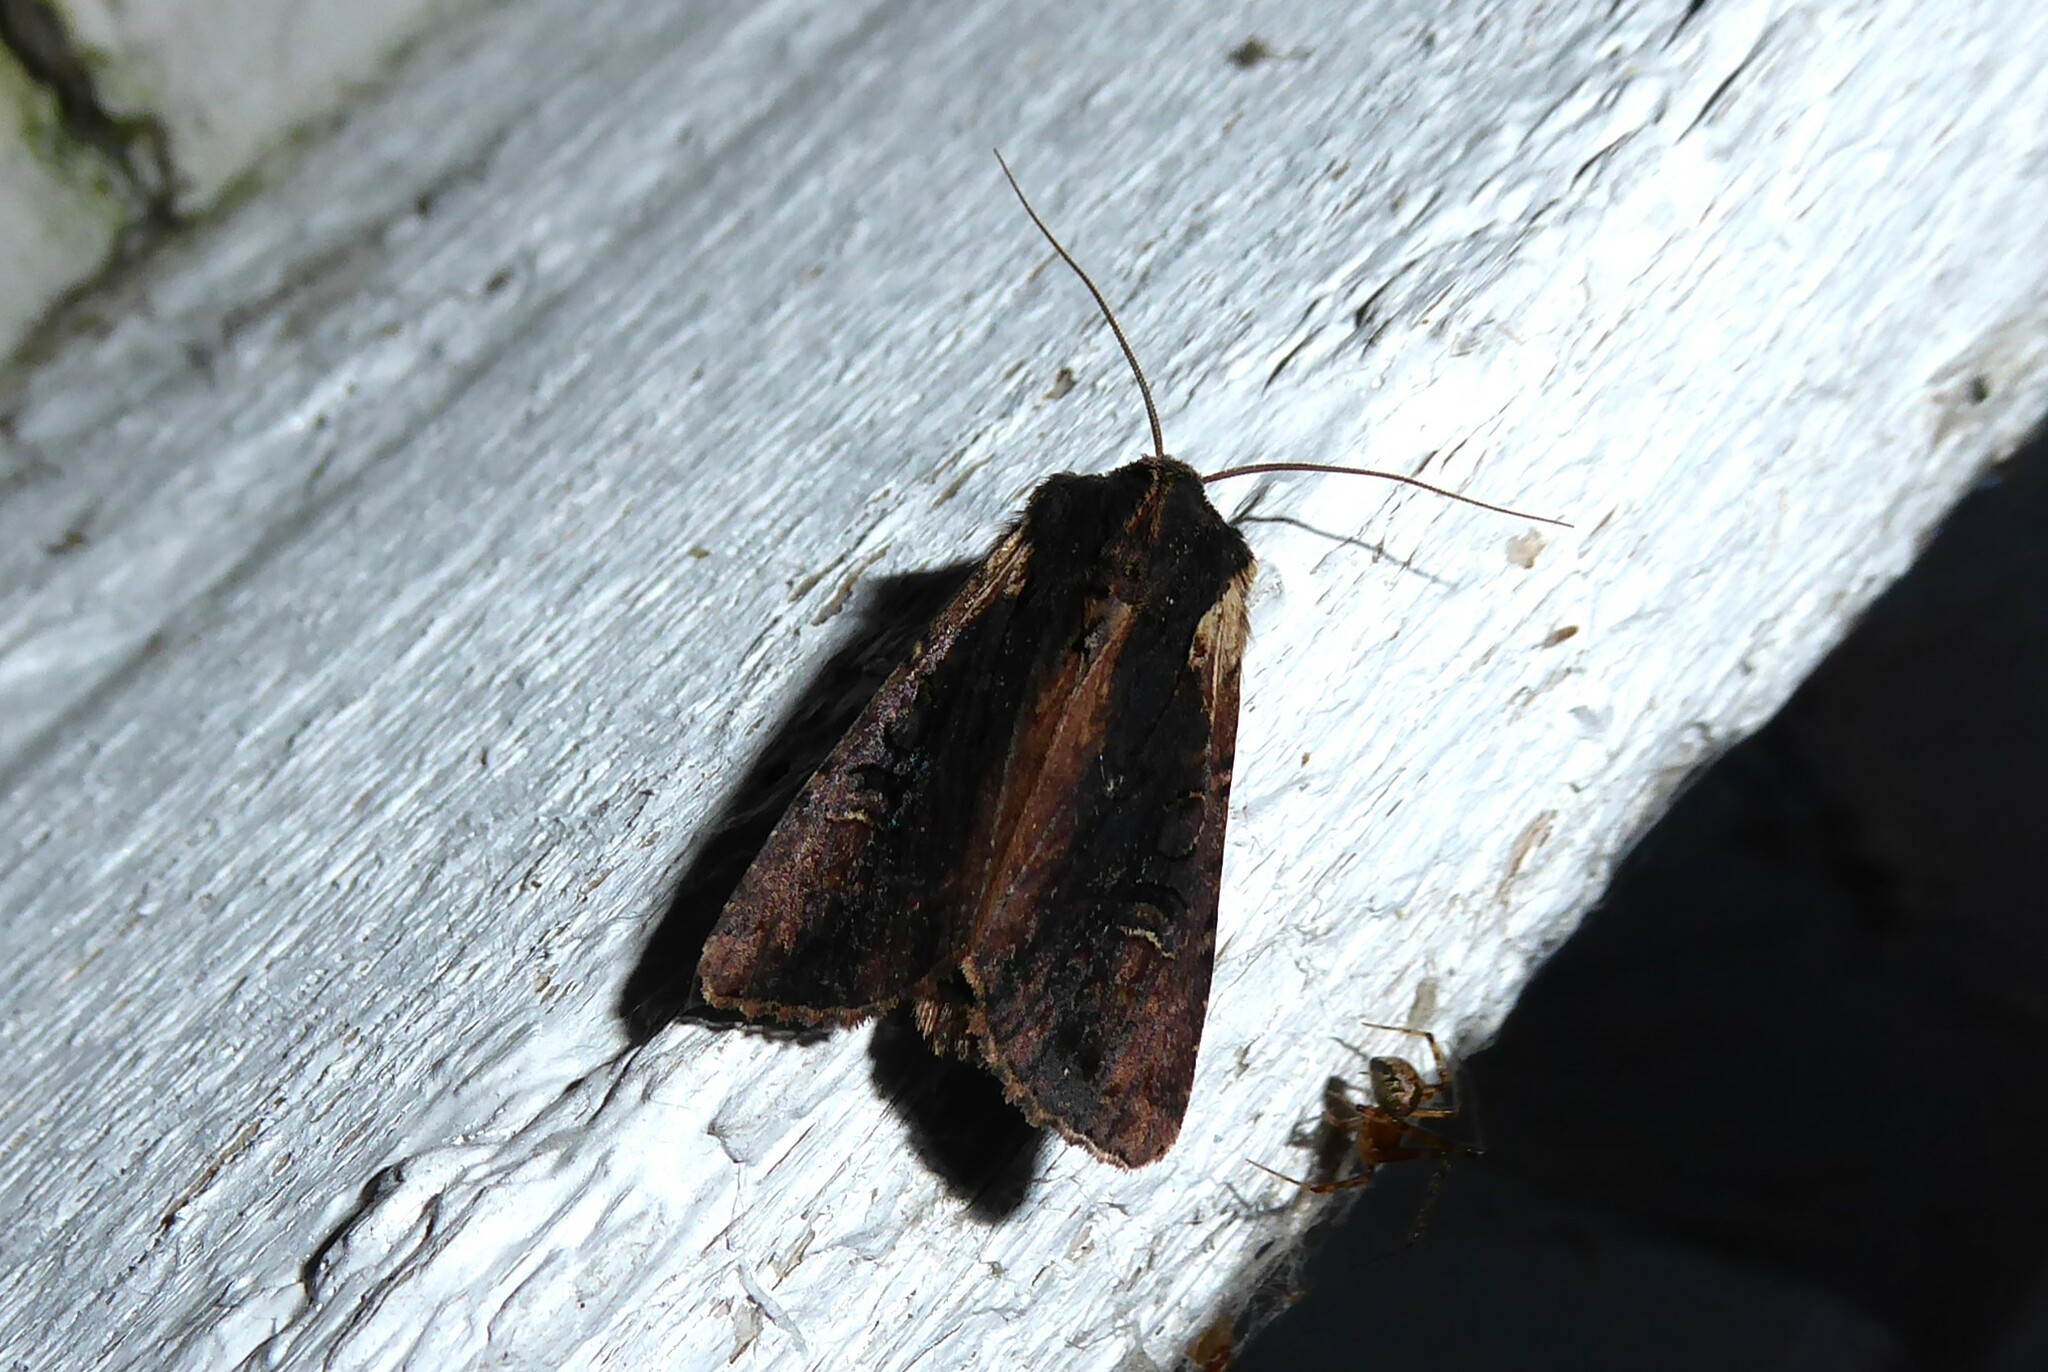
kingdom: Animalia
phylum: Arthropoda
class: Insecta
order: Lepidoptera
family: Noctuidae
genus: Ichneutica
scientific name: Ichneutica omoplaca
